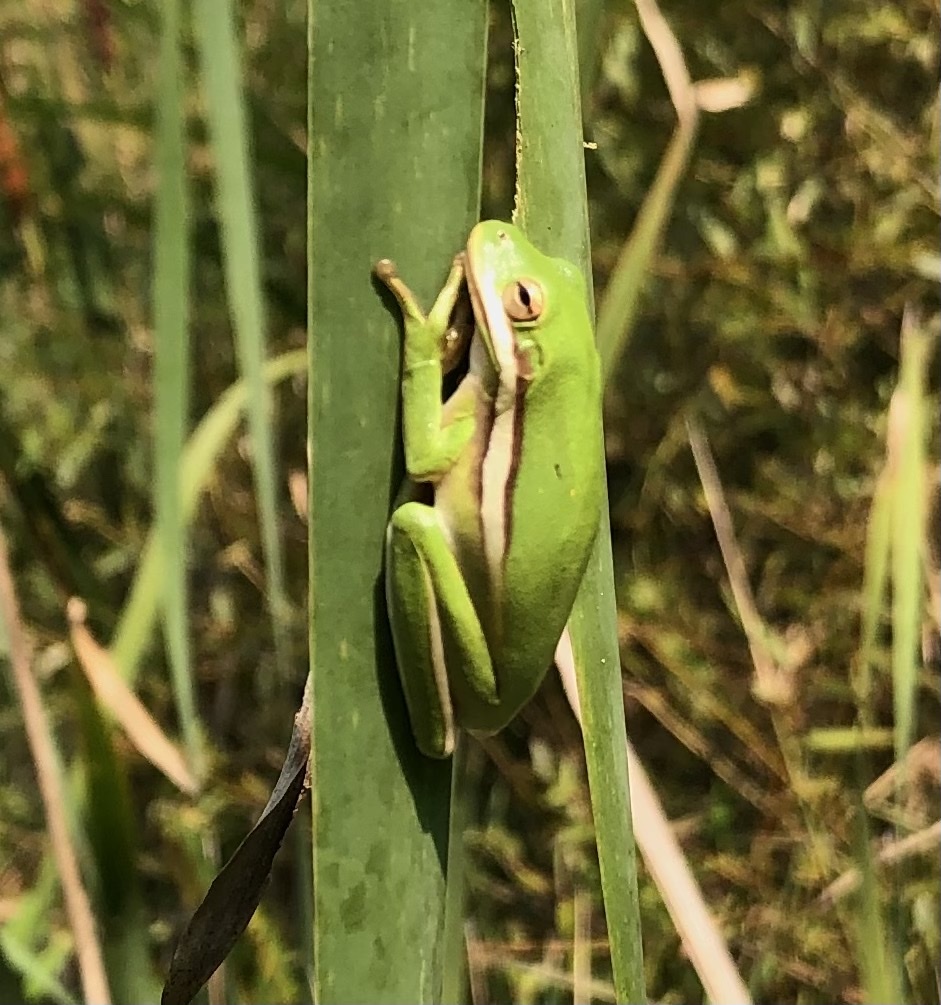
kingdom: Animalia
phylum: Chordata
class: Amphibia
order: Anura
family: Hylidae
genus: Dryophytes
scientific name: Dryophytes cinereus
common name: Green treefrog
